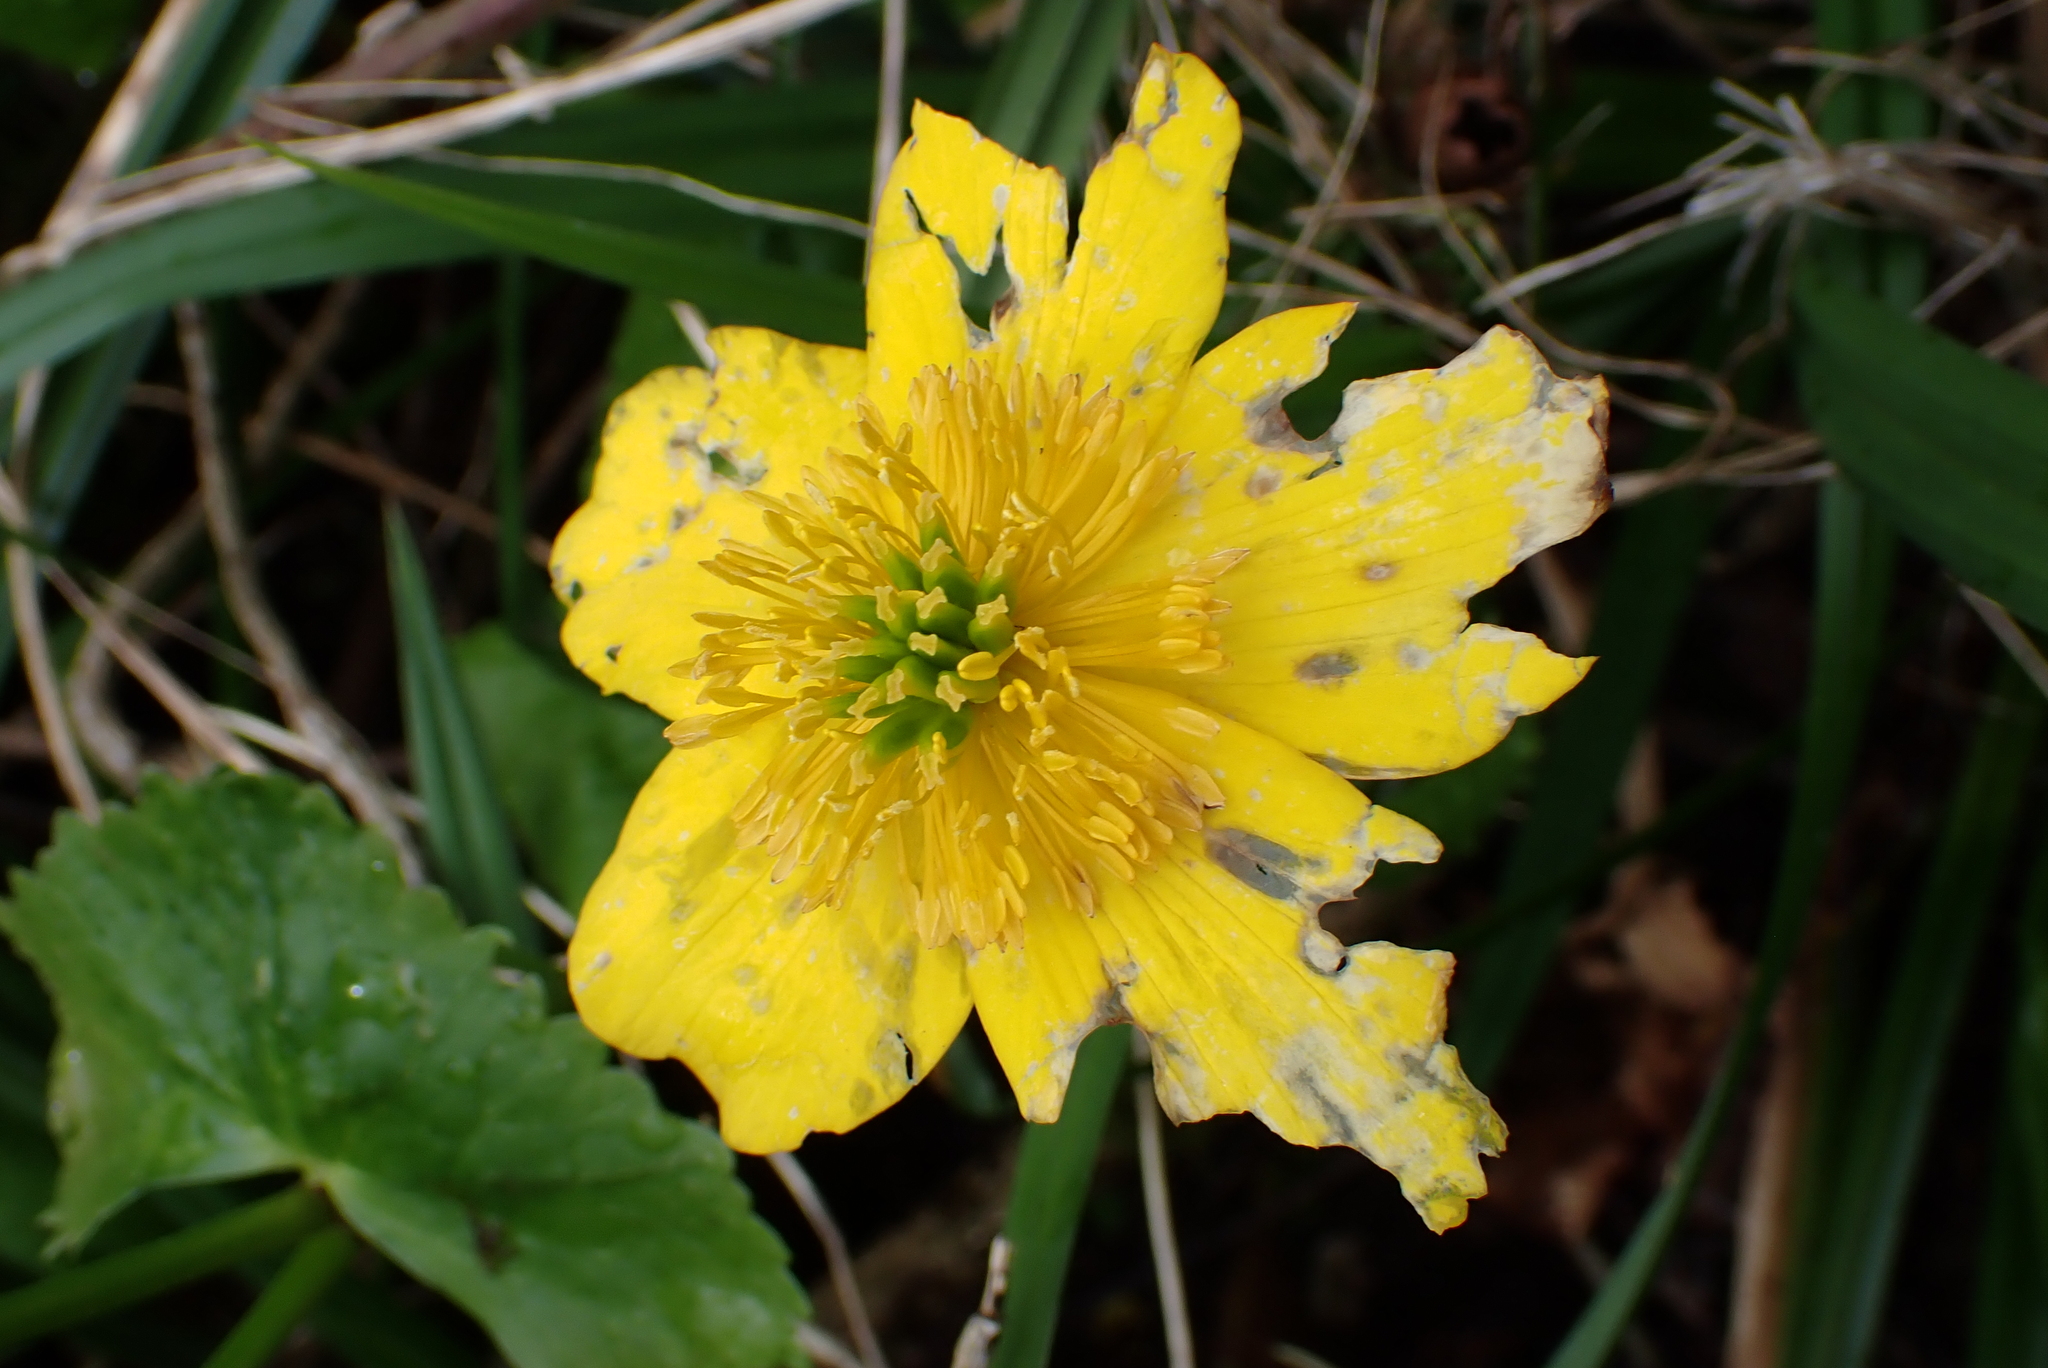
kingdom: Plantae
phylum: Tracheophyta
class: Magnoliopsida
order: Ranunculales
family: Ranunculaceae
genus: Caltha
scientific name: Caltha palustris
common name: Marsh marigold
